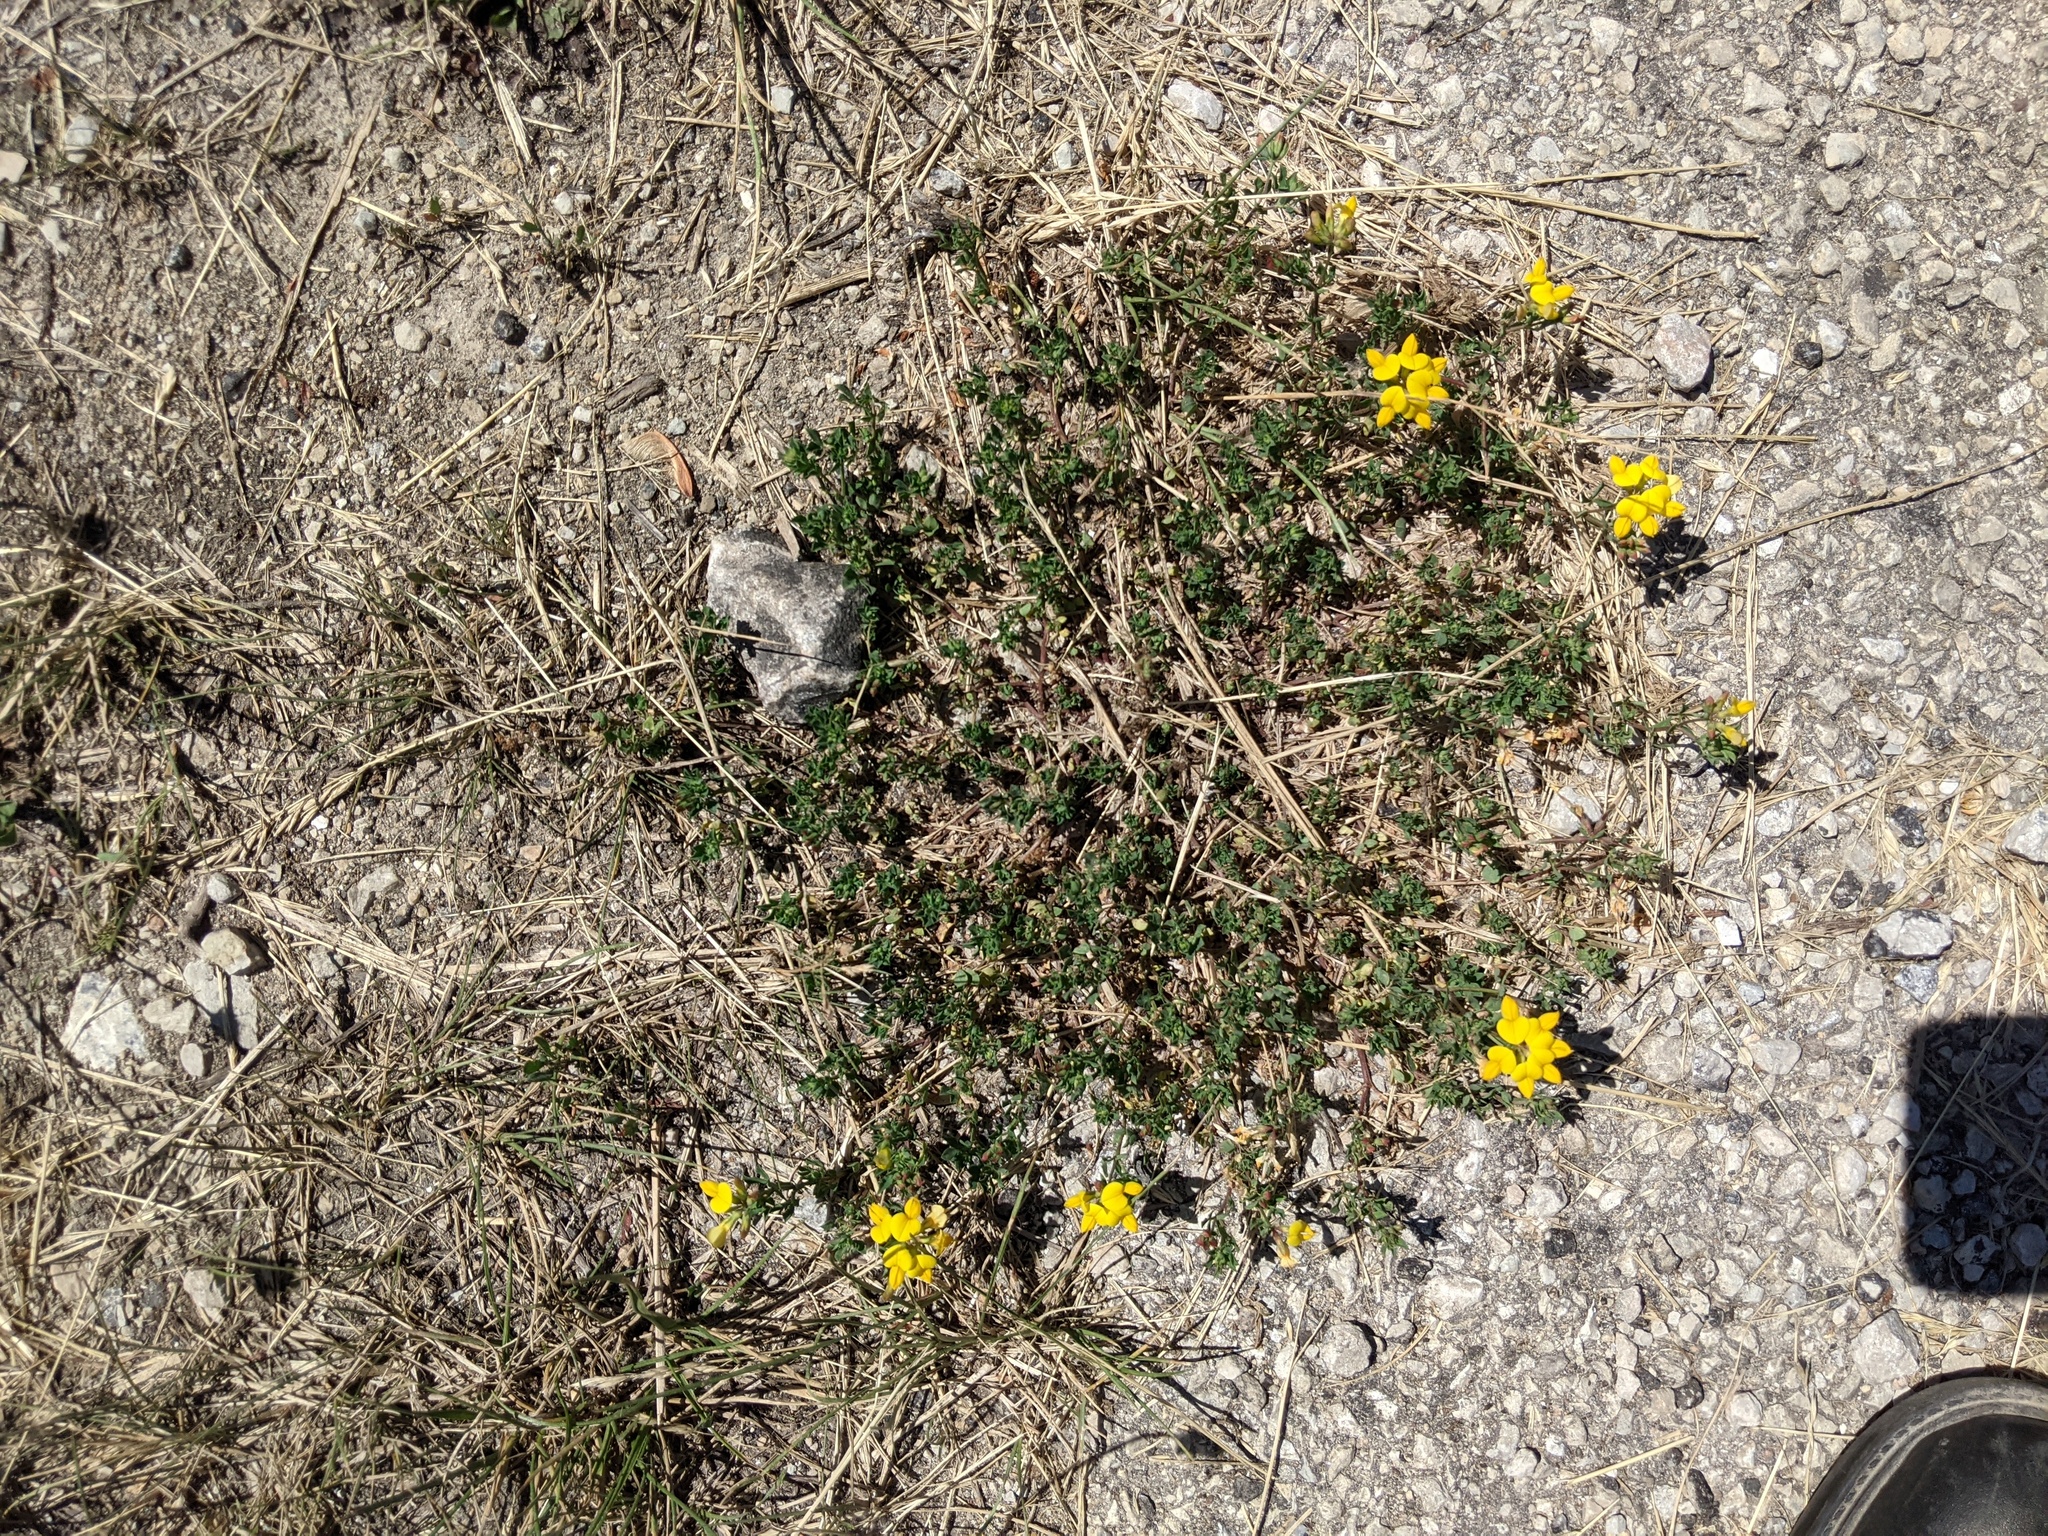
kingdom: Plantae
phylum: Tracheophyta
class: Magnoliopsida
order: Fabales
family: Fabaceae
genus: Lotus
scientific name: Lotus corniculatus
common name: Common bird's-foot-trefoil
